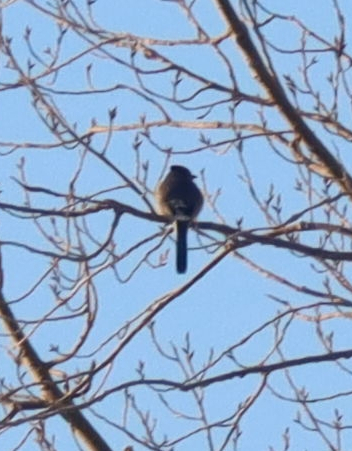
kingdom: Animalia
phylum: Chordata
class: Aves
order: Passeriformes
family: Corvidae
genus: Cyanocitta
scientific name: Cyanocitta cristata
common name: Blue jay
